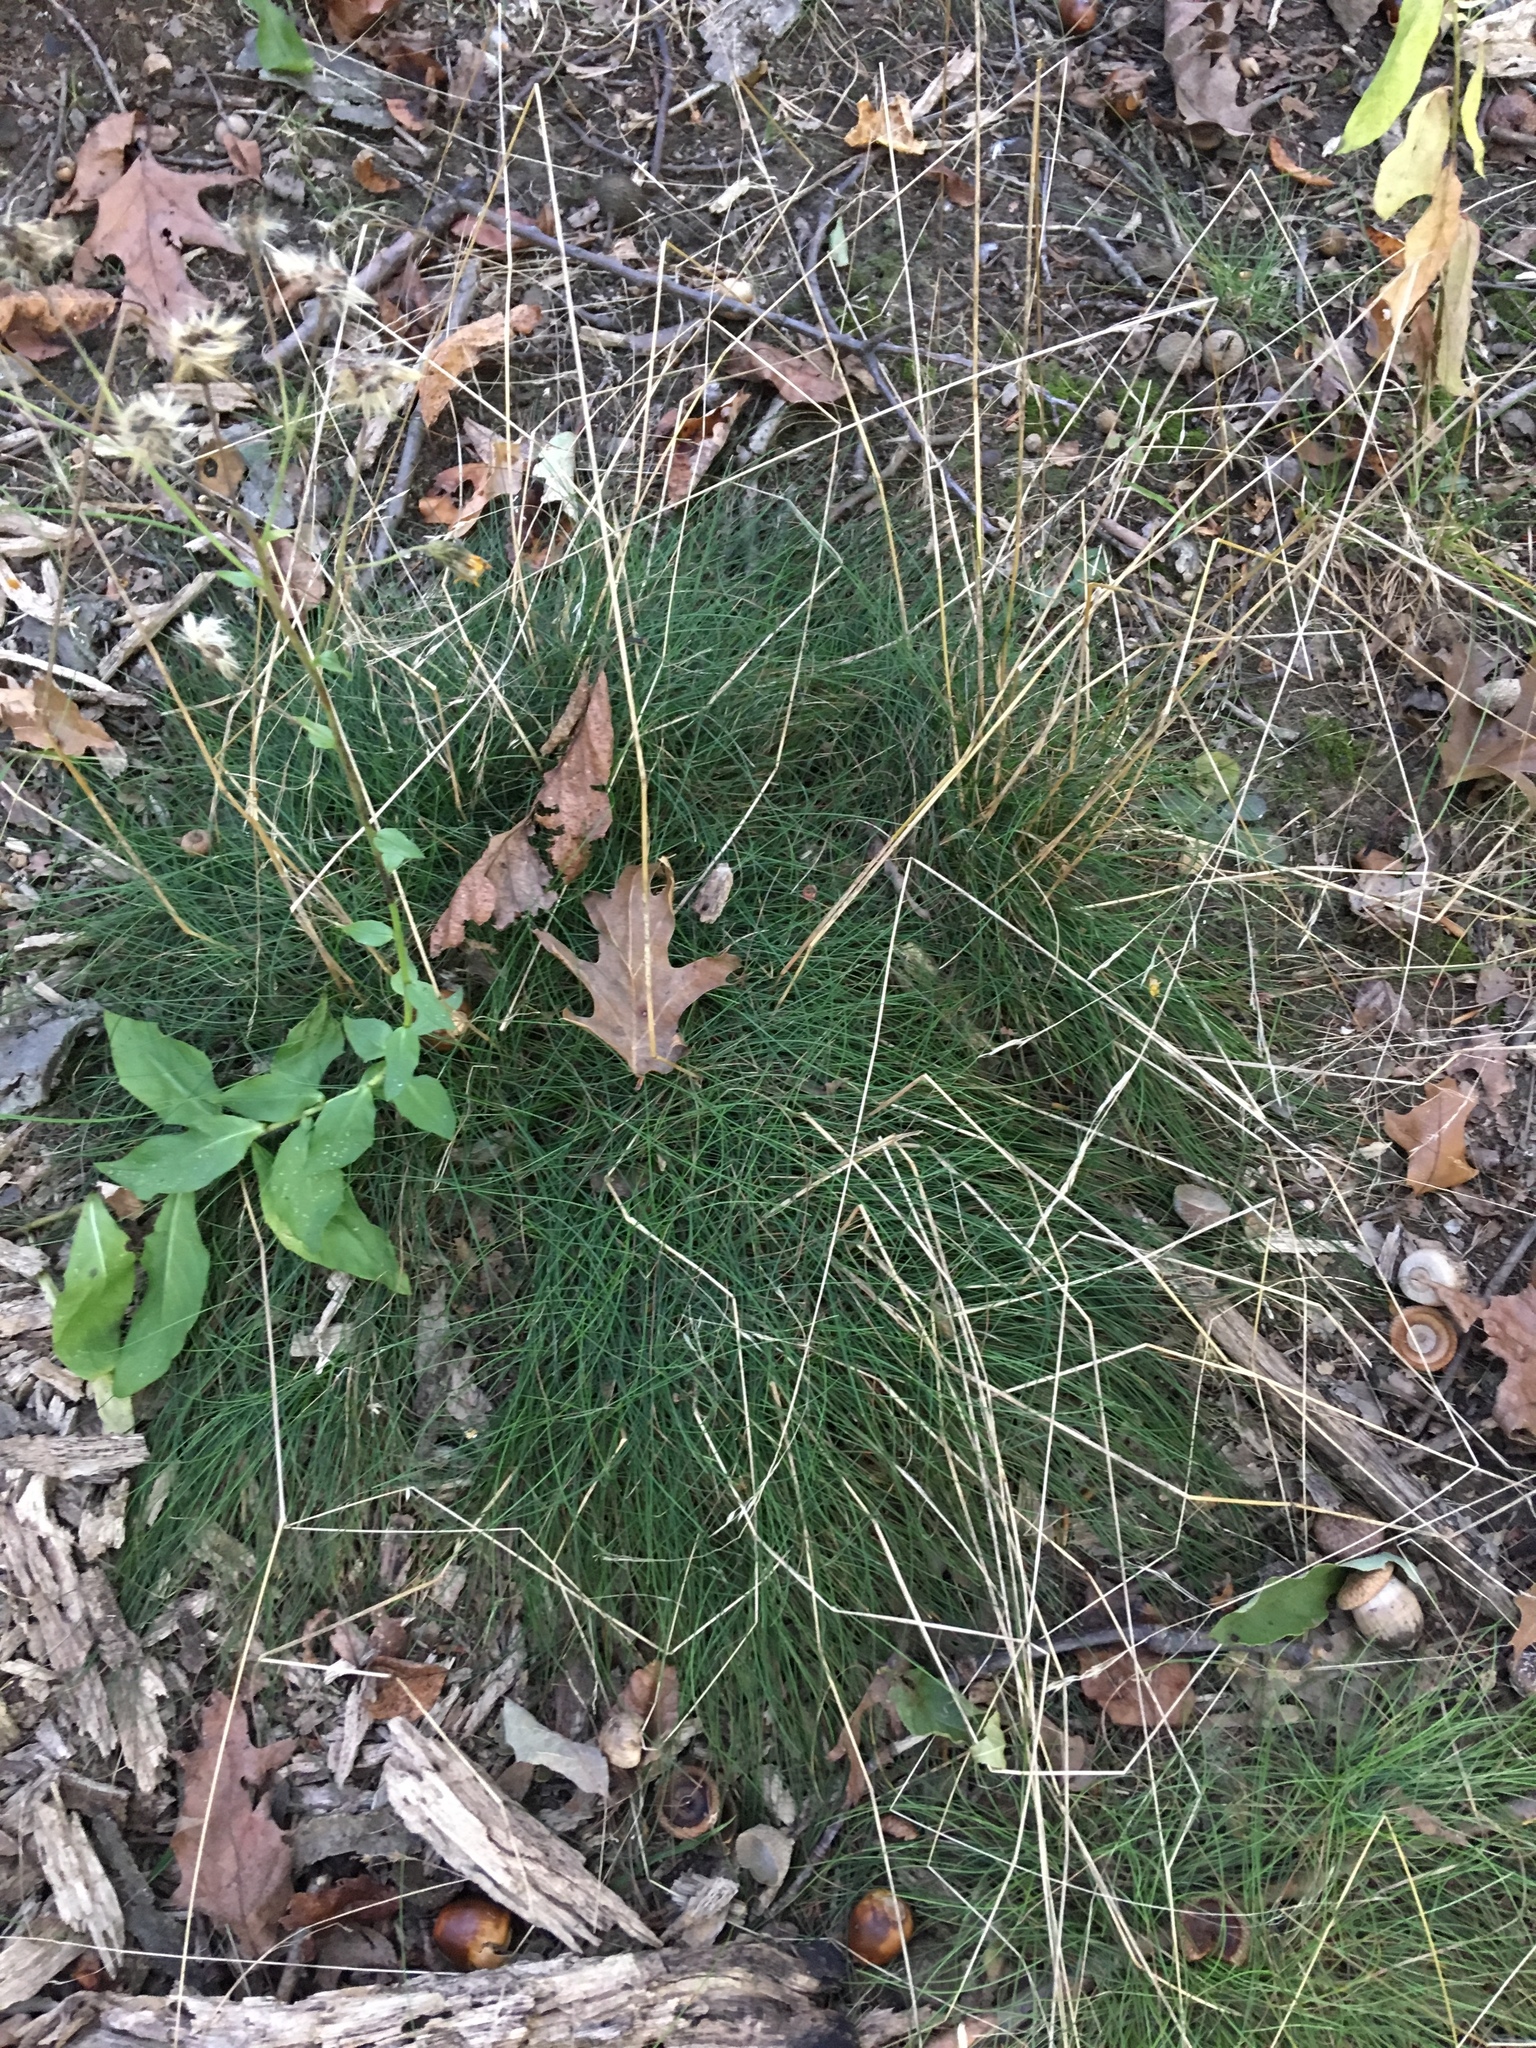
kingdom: Plantae
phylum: Tracheophyta
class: Liliopsida
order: Poales
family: Poaceae
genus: Avenella
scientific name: Avenella flexuosa
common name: Wavy hairgrass
